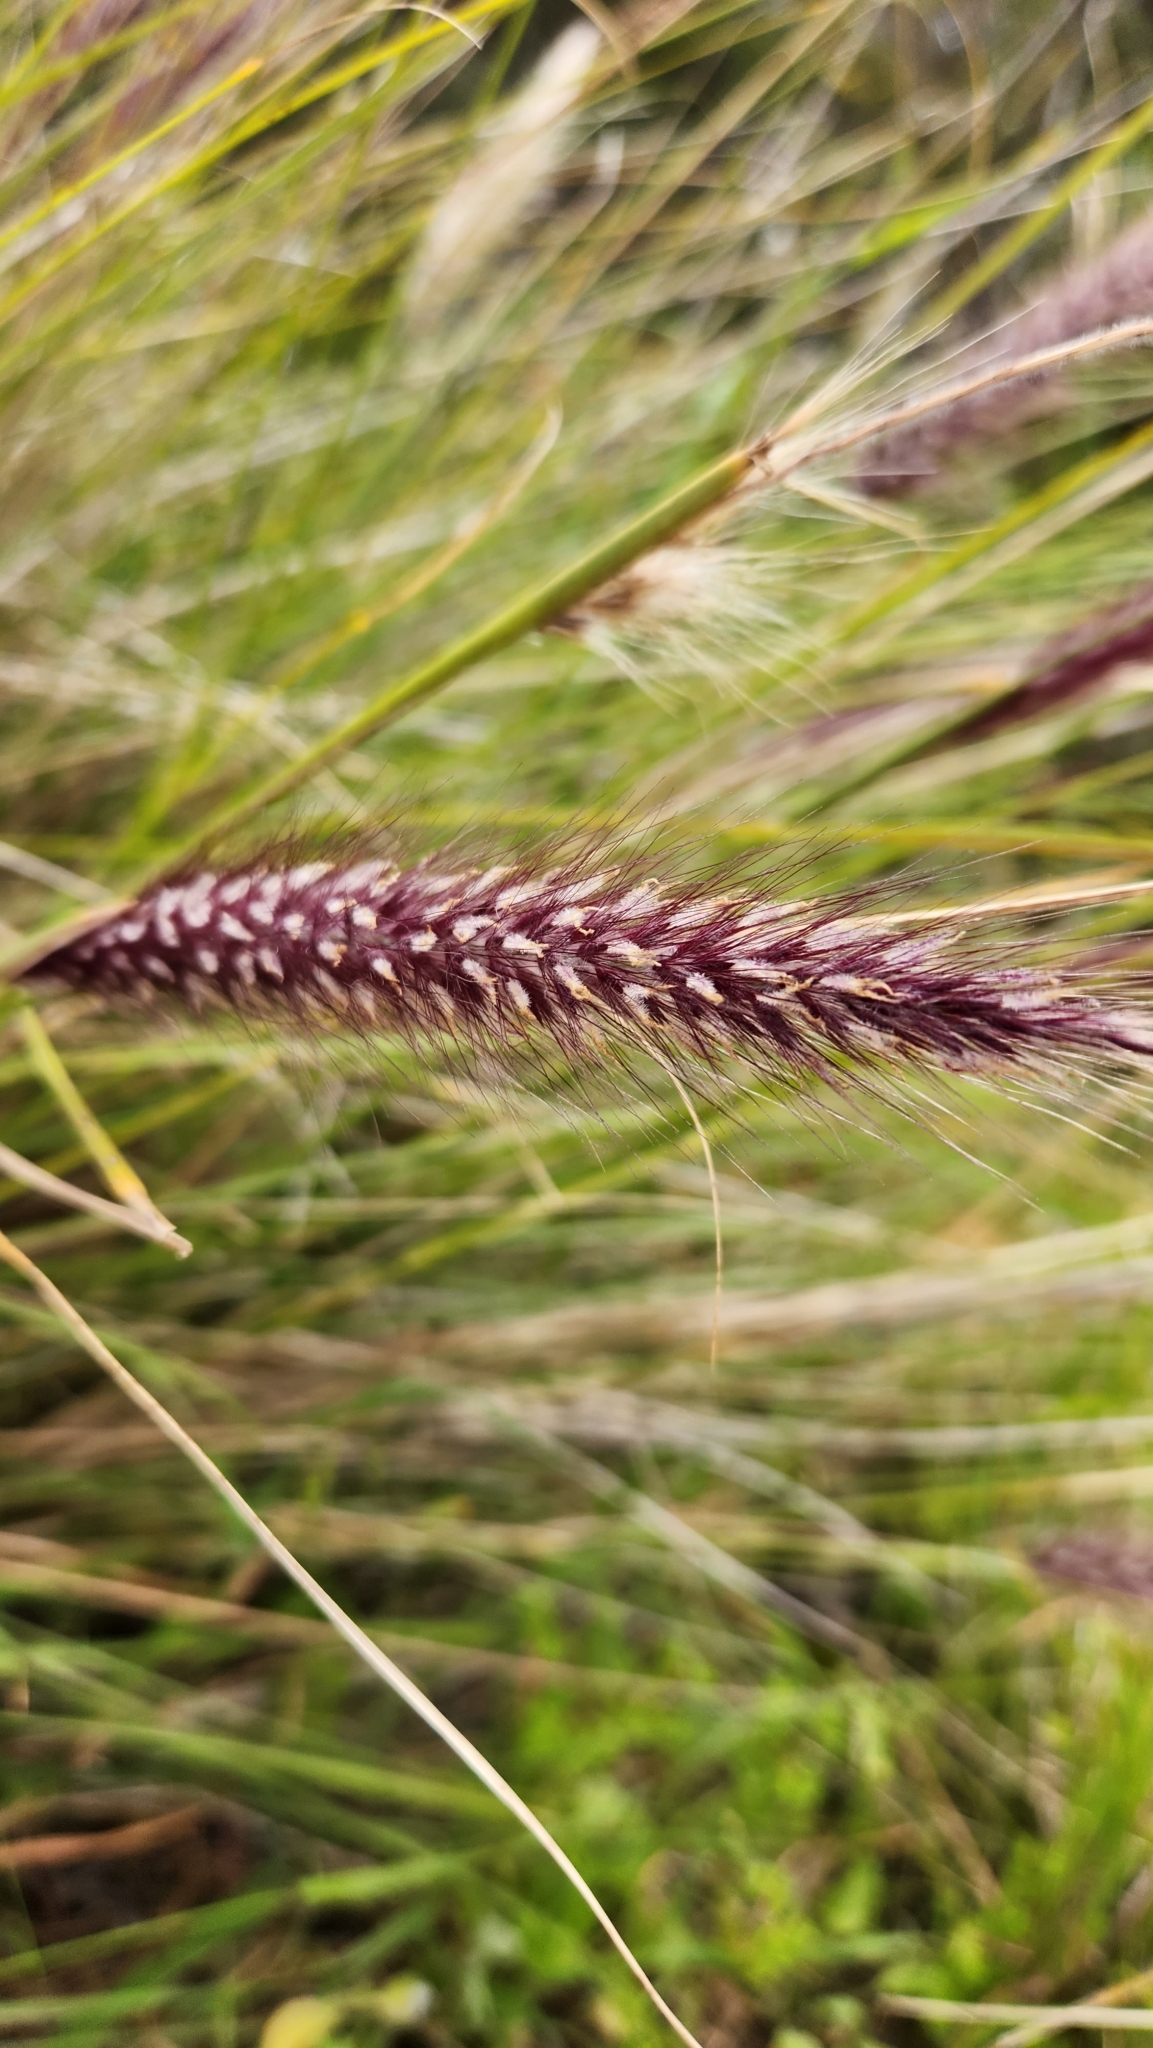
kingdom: Plantae
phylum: Tracheophyta
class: Liliopsida
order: Poales
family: Poaceae
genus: Cenchrus
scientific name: Cenchrus setaceus
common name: Crimson fountaingrass
